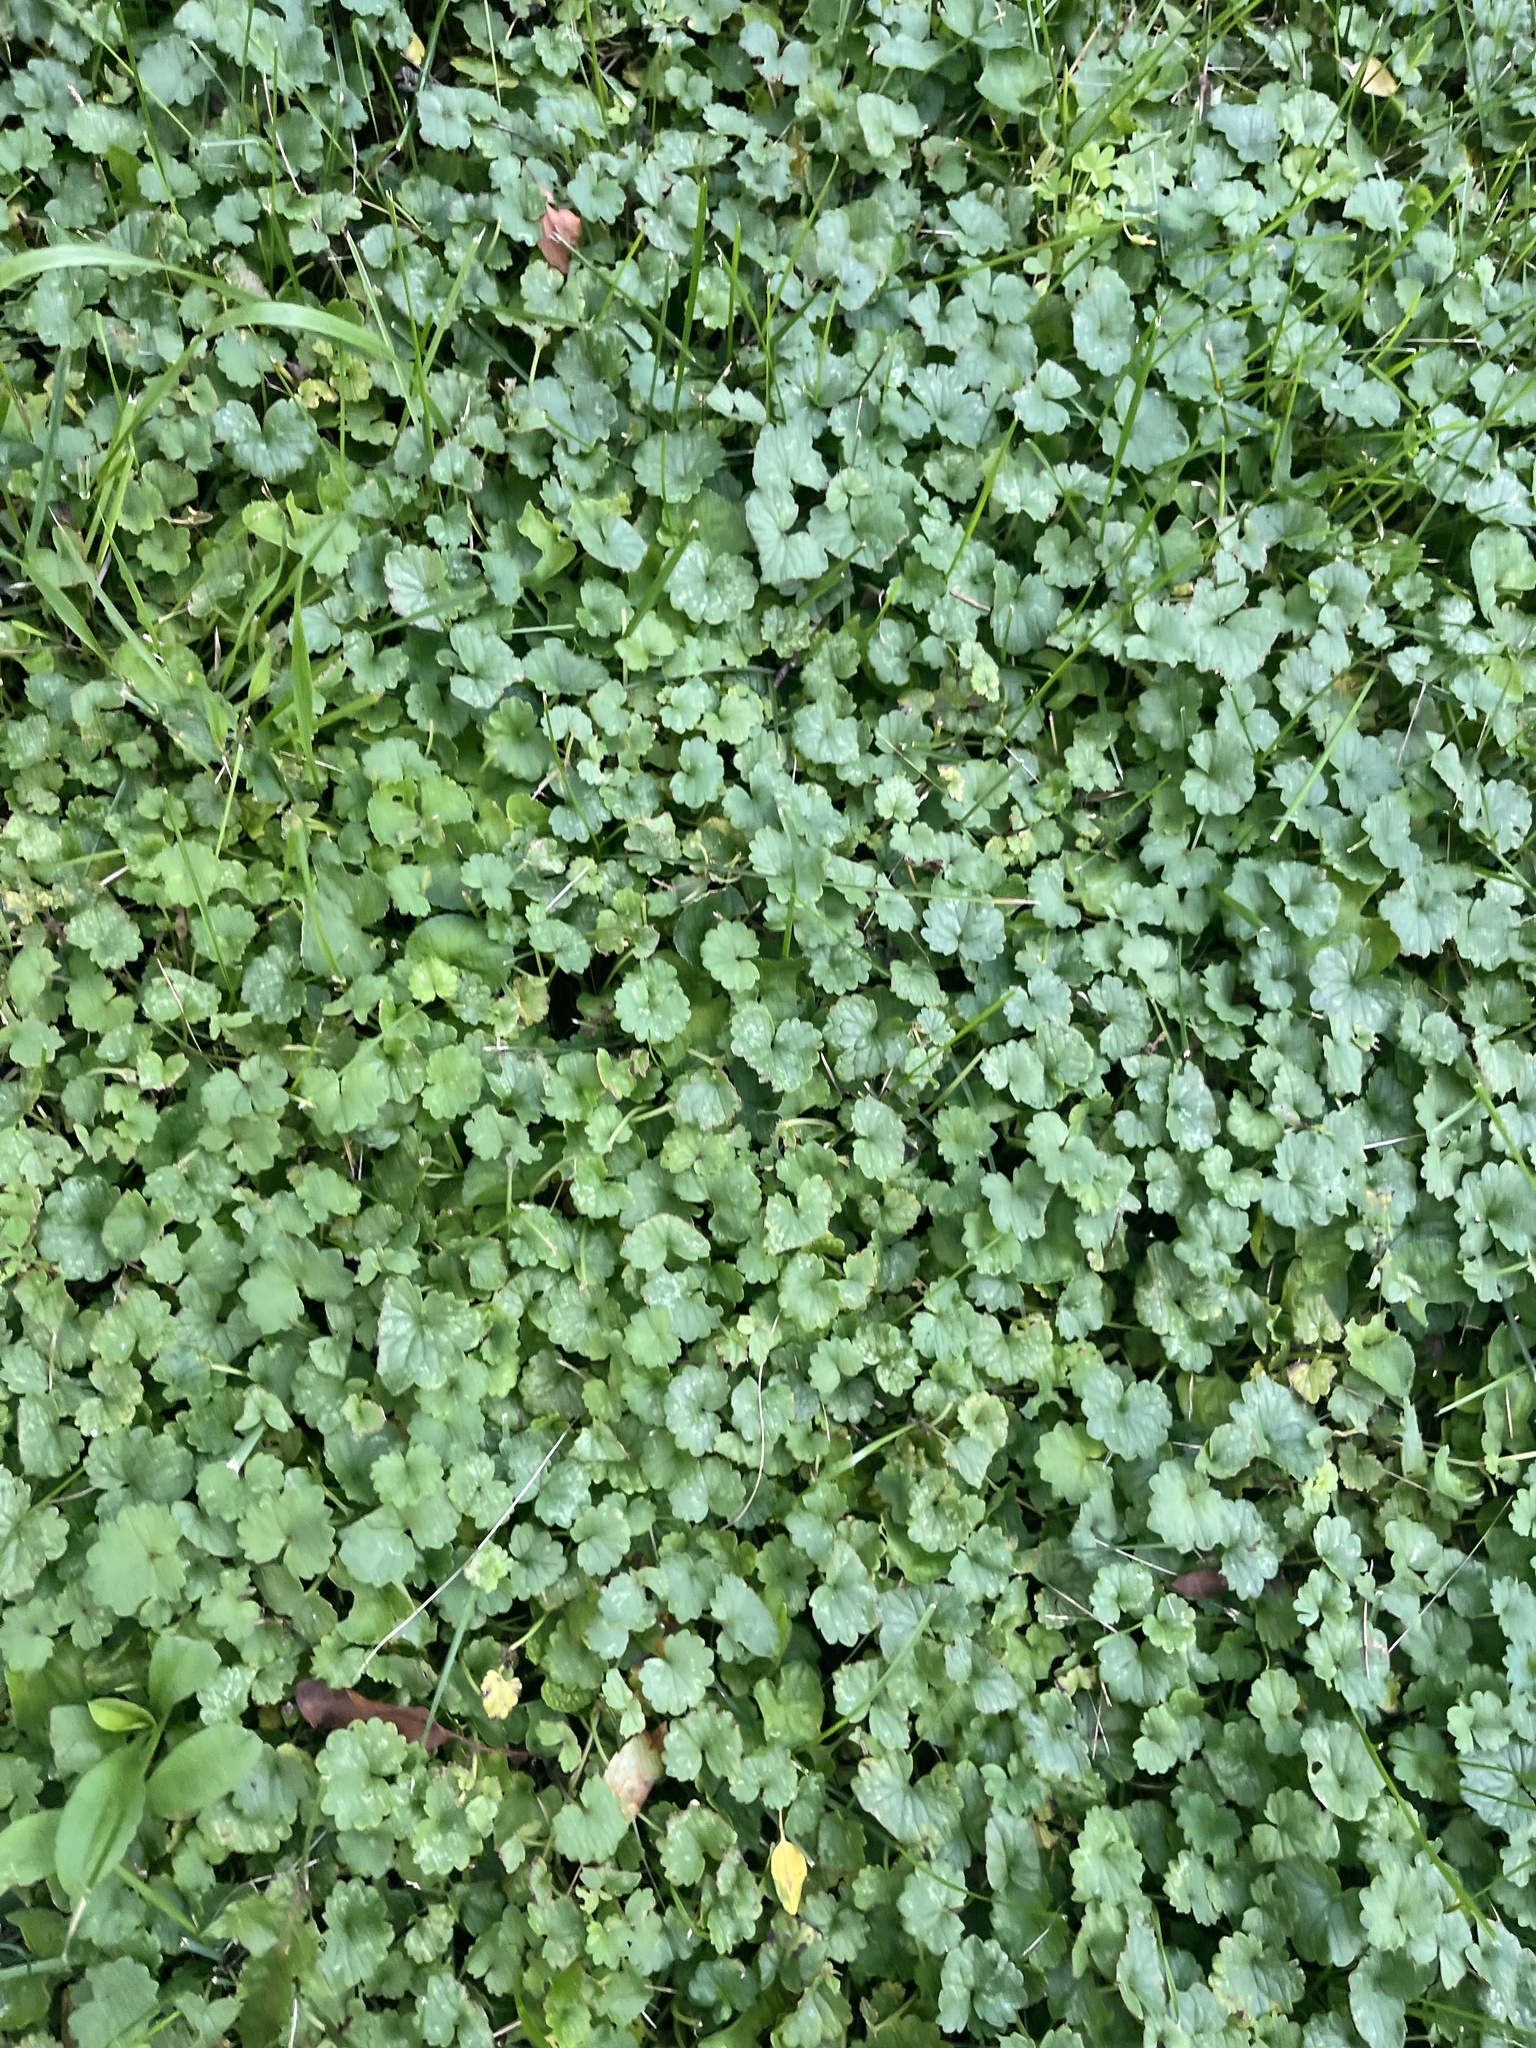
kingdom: Plantae
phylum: Tracheophyta
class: Magnoliopsida
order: Lamiales
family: Lamiaceae
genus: Glechoma
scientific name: Glechoma hederacea
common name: Ground ivy
